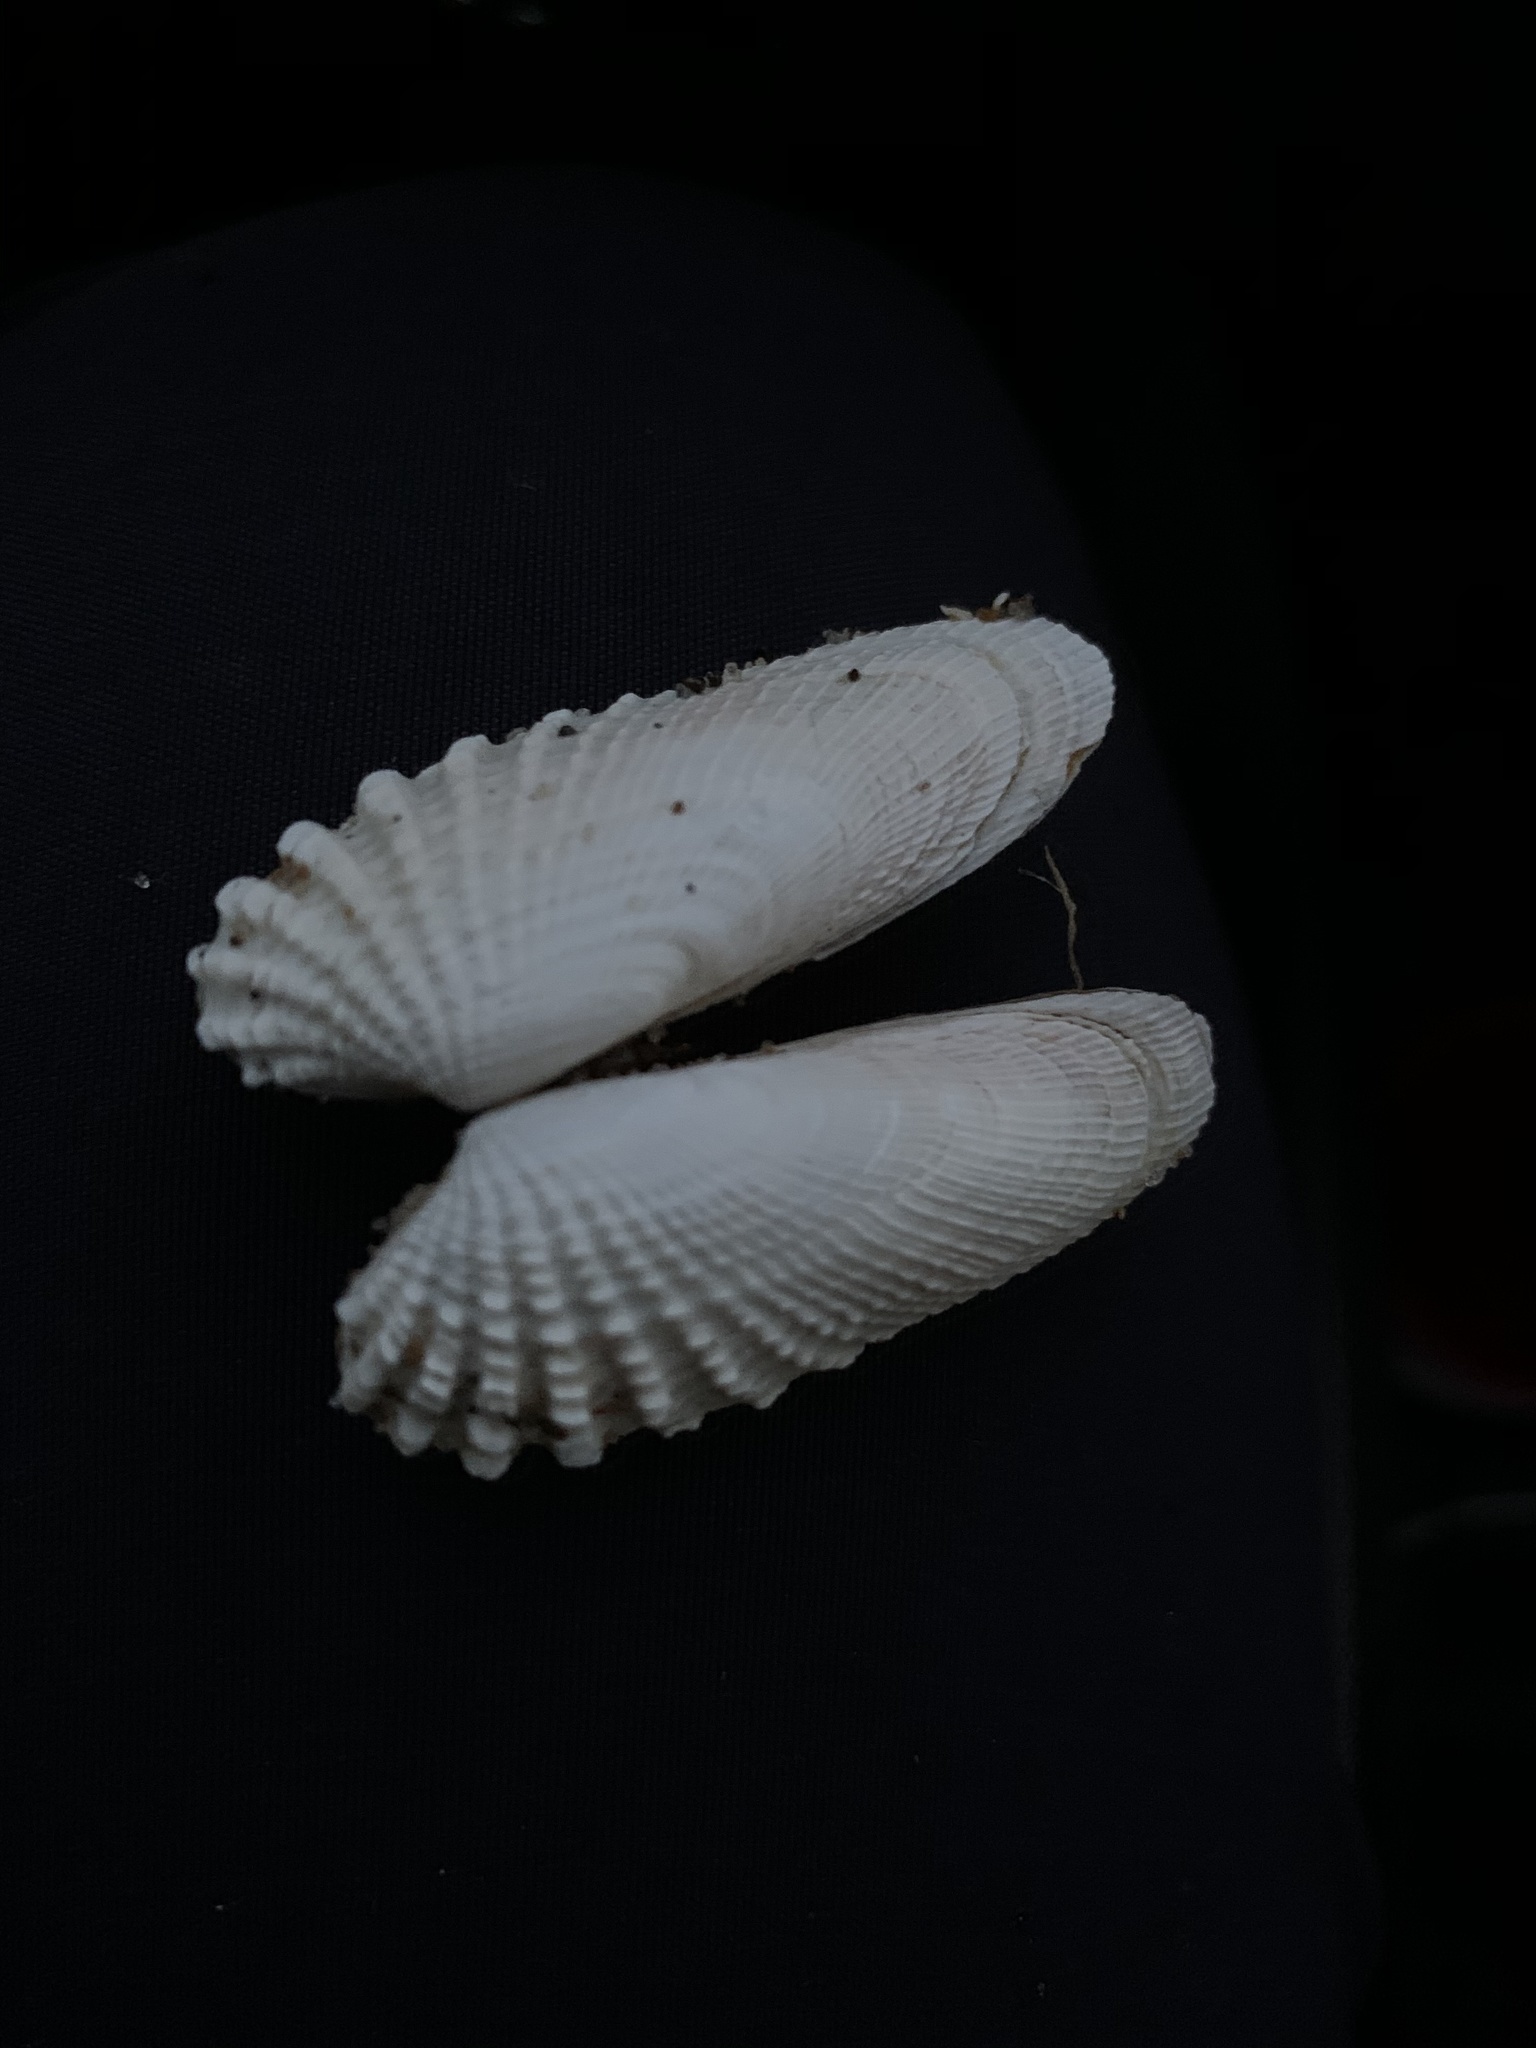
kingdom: Animalia
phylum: Mollusca
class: Bivalvia
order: Venerida
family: Veneridae
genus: Petricolaria
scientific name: Petricolaria pholadiformis
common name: American piddock
